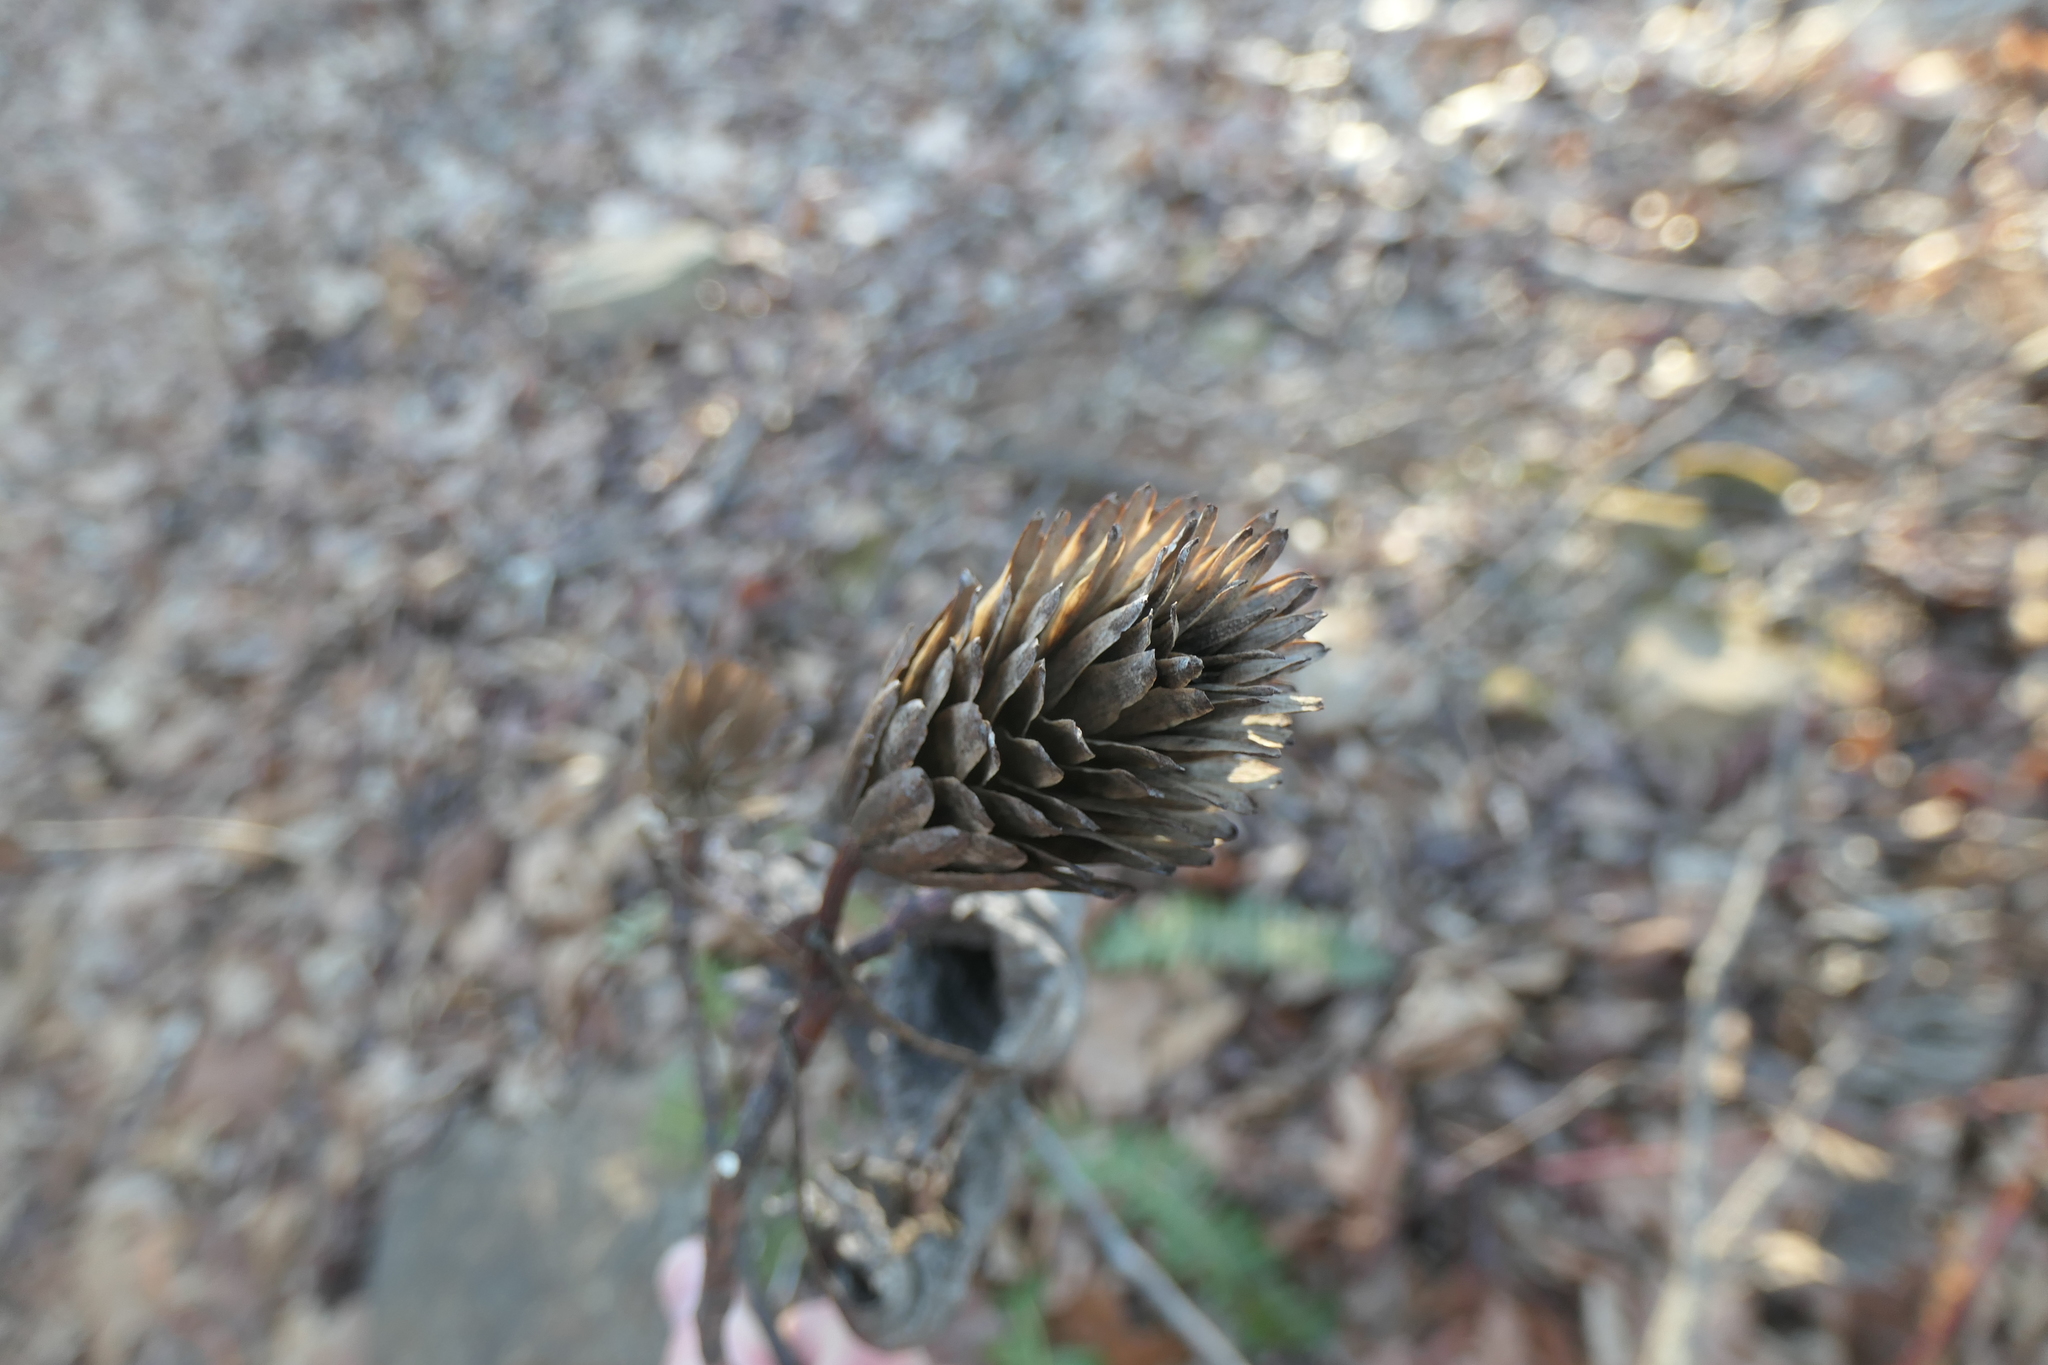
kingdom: Plantae
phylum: Tracheophyta
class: Magnoliopsida
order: Magnoliales
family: Magnoliaceae
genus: Liriodendron
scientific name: Liriodendron tulipifera
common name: Tulip tree
